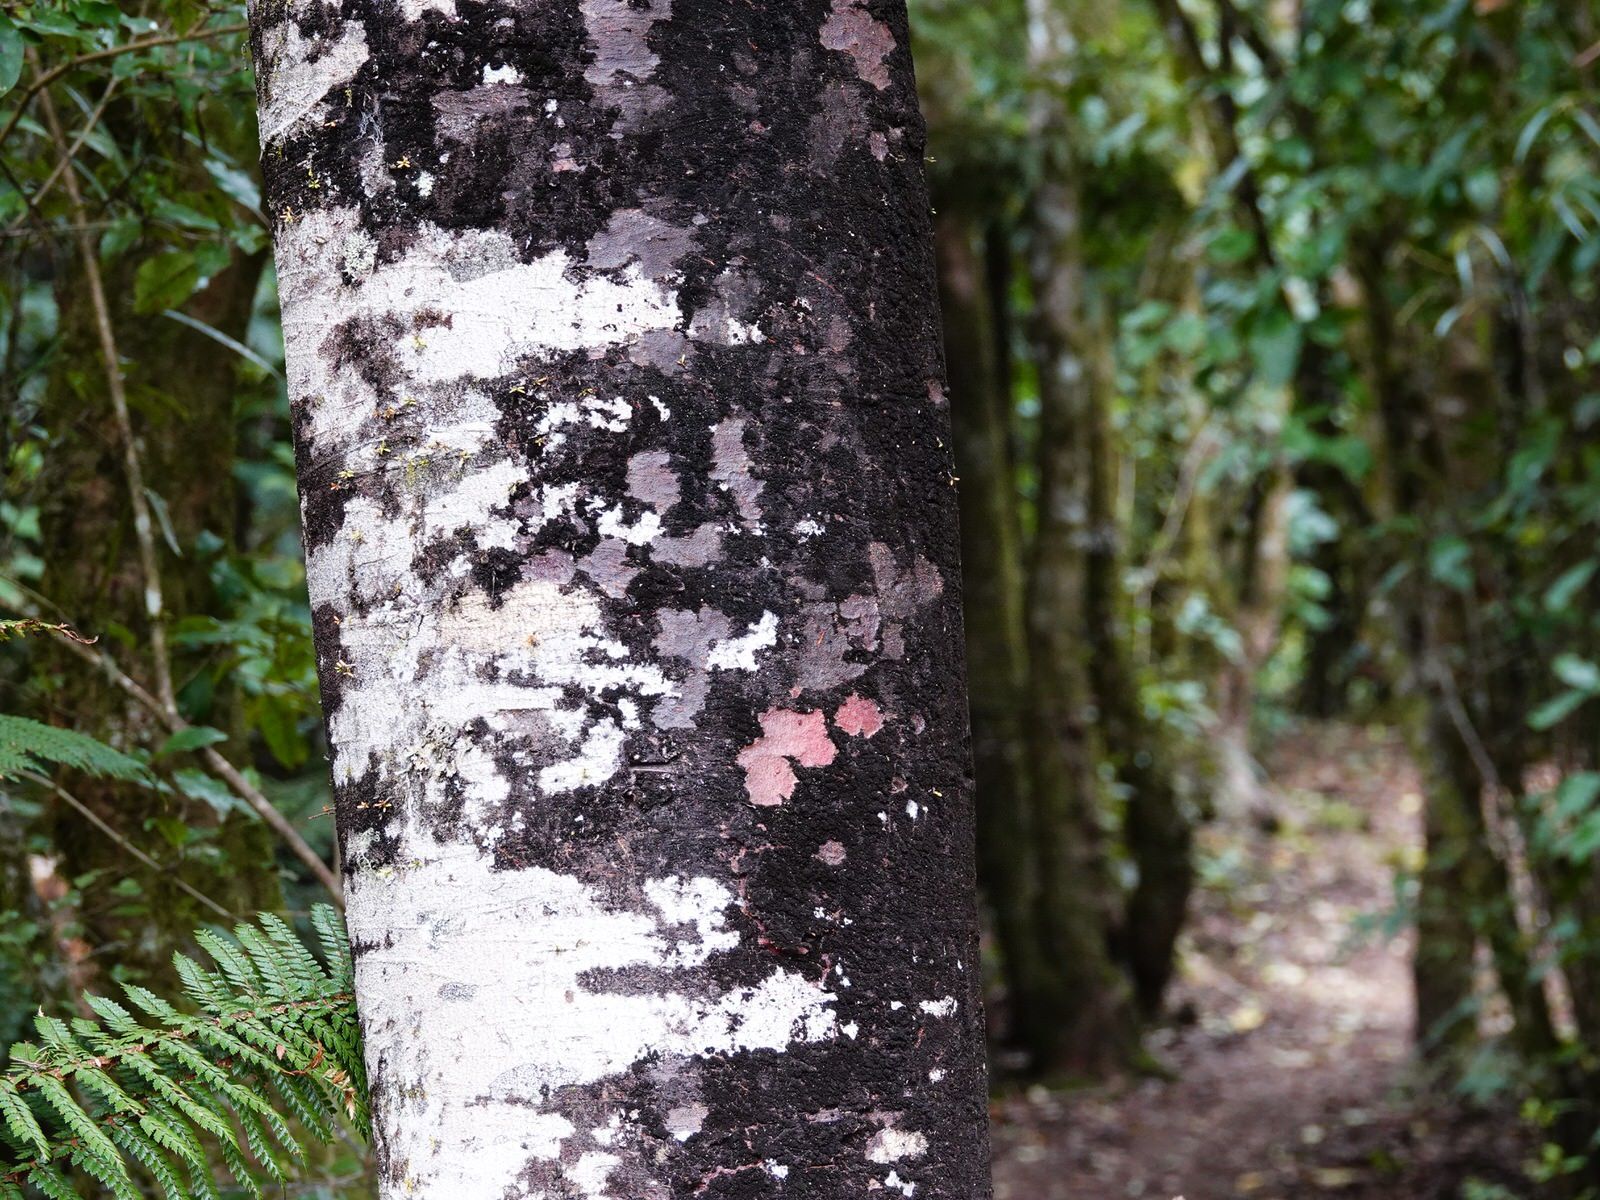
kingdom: Plantae
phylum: Tracheophyta
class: Pinopsida
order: Pinales
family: Podocarpaceae
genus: Prumnopitys
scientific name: Prumnopitys taxifolia
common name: Matai
